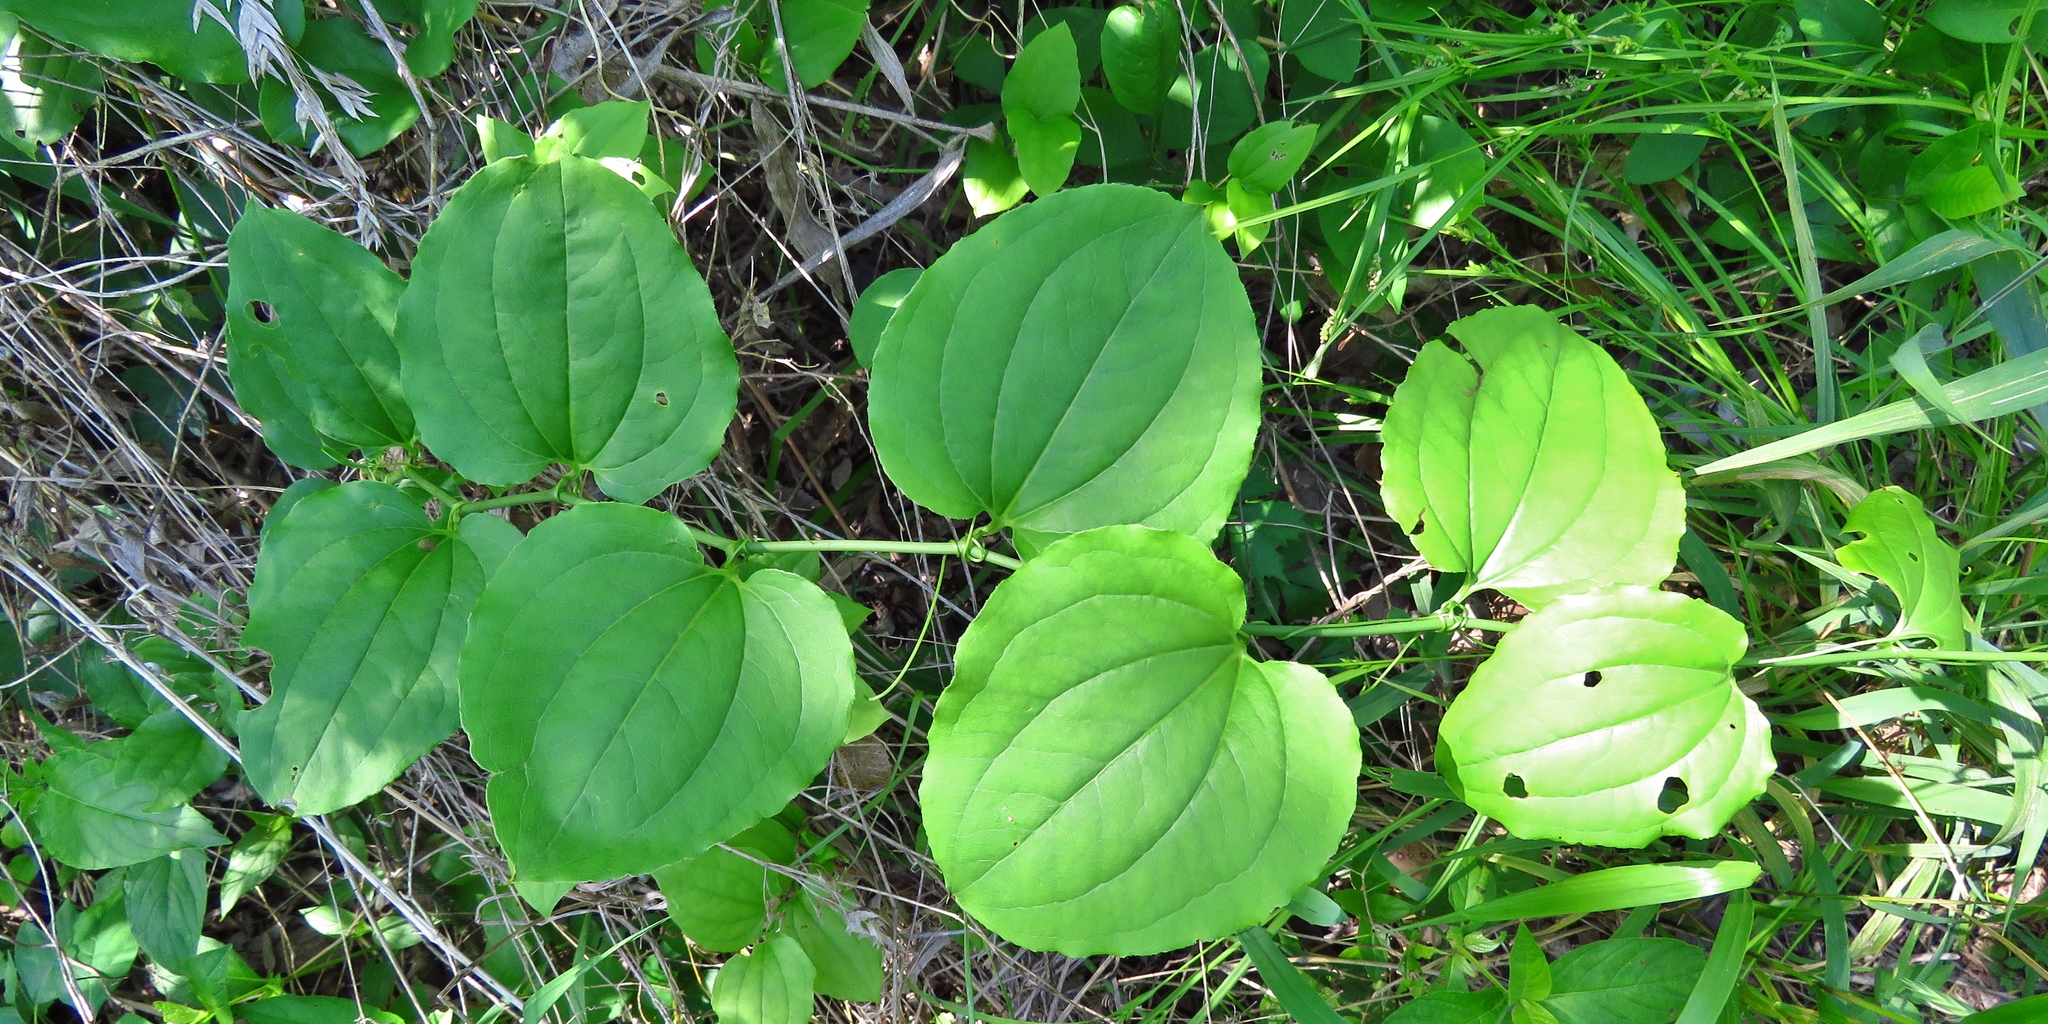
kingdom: Plantae
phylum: Tracheophyta
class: Liliopsida
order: Liliales
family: Smilacaceae
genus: Smilax
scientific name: Smilax tamnoides
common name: Hellfetter
